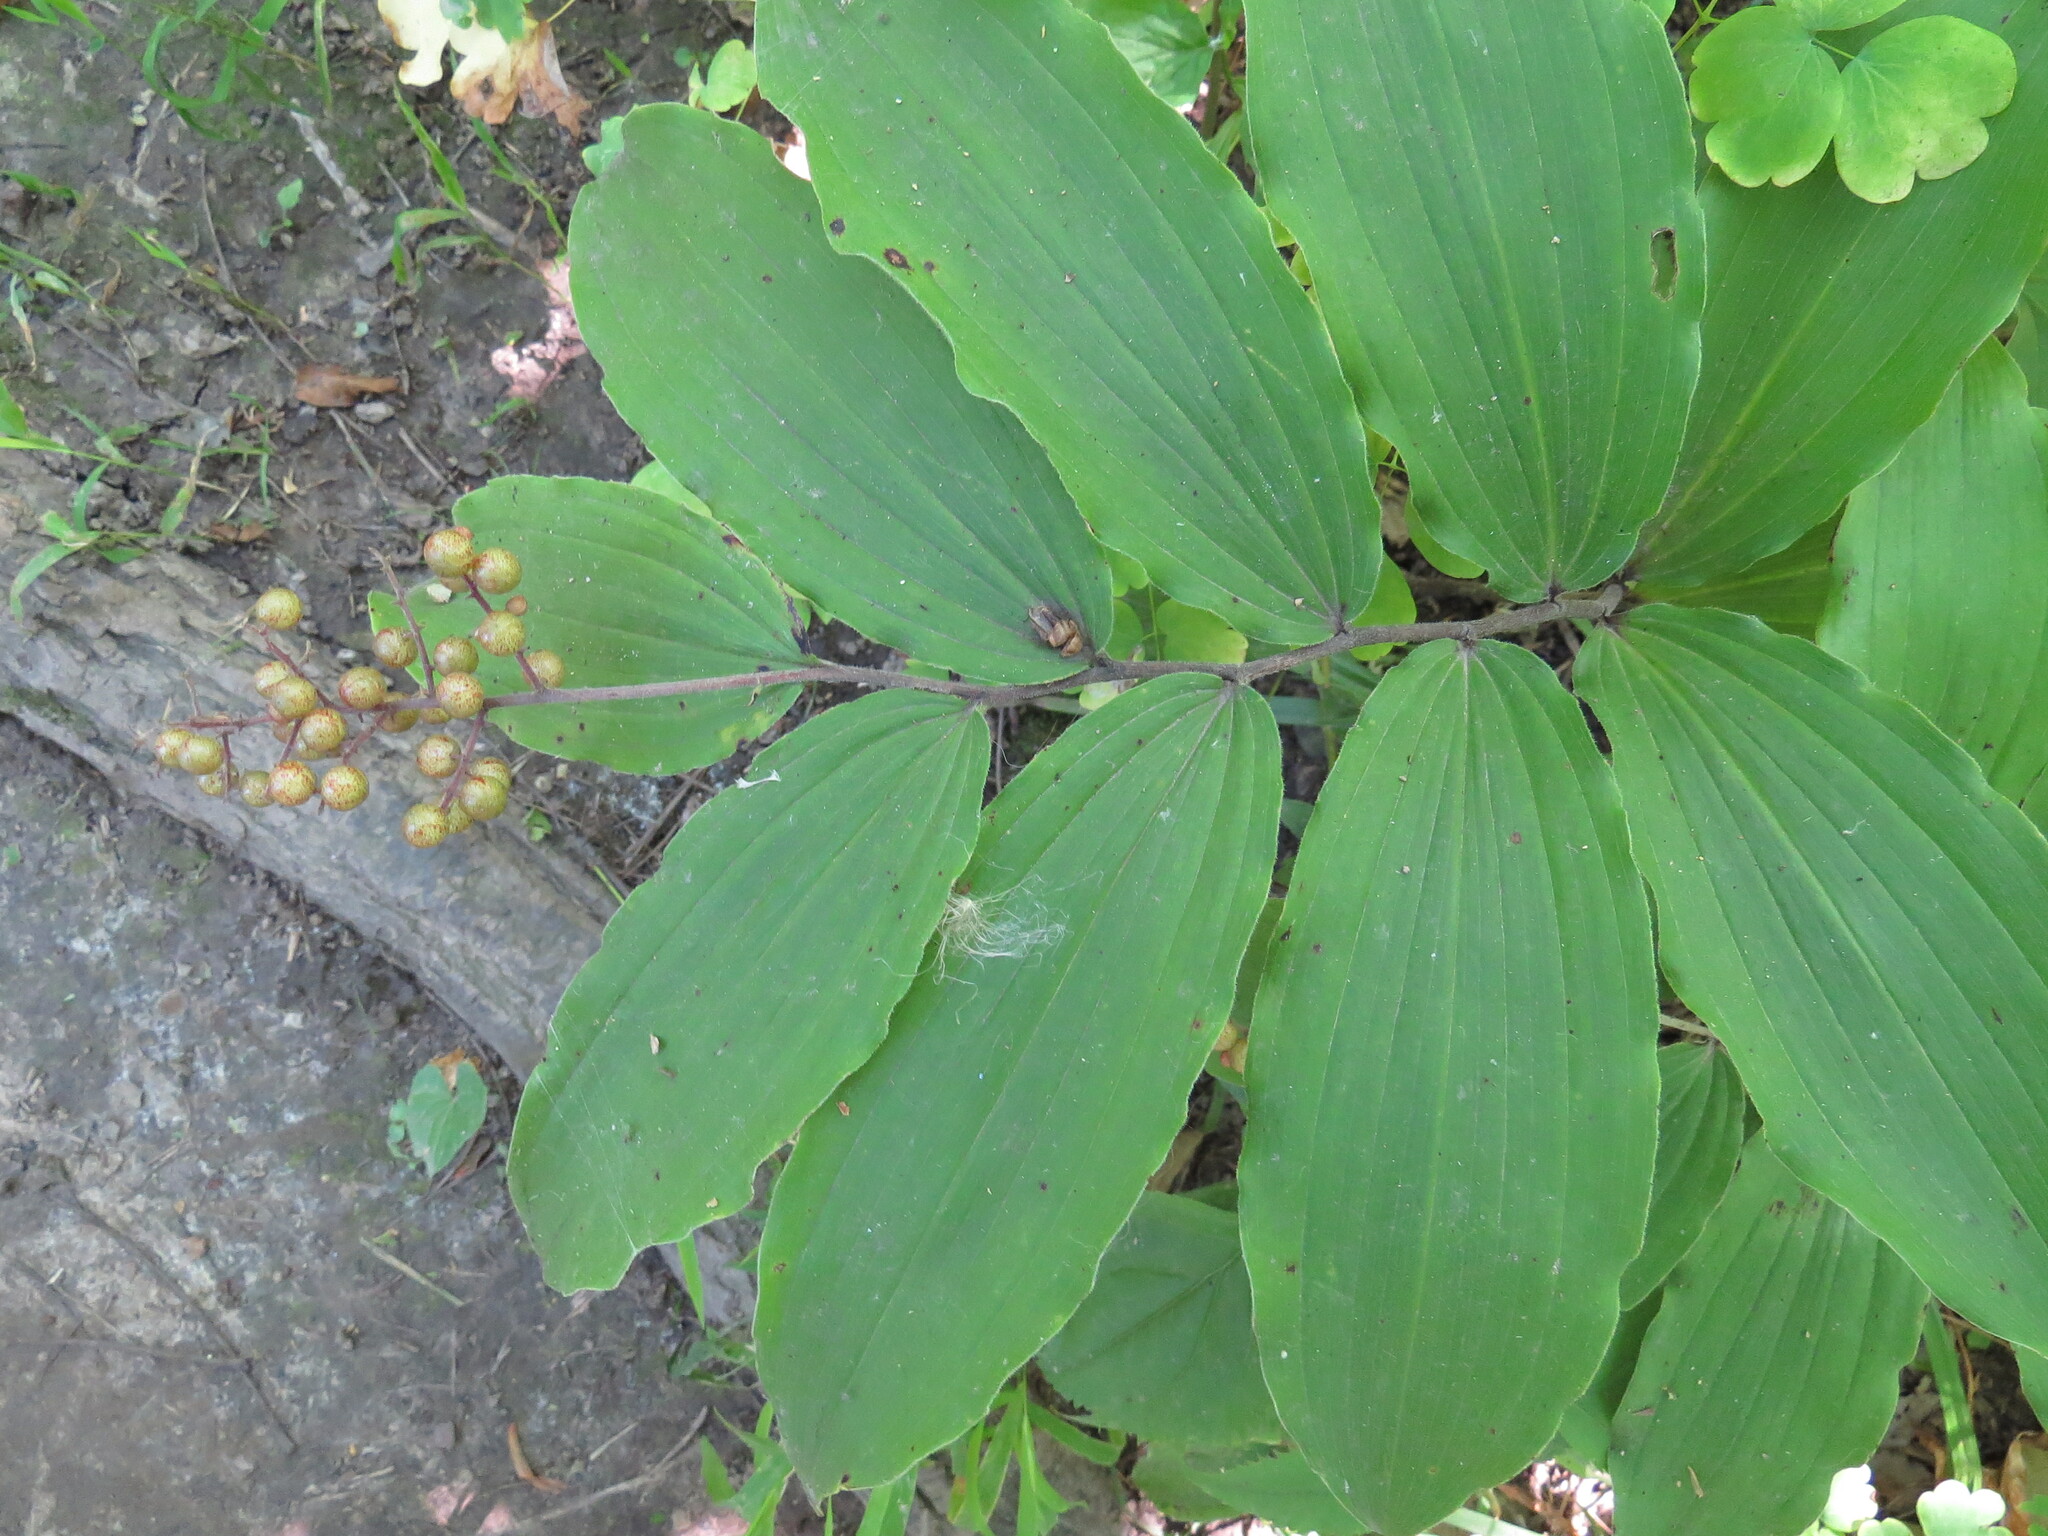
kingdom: Plantae
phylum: Tracheophyta
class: Liliopsida
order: Asparagales
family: Asparagaceae
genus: Maianthemum
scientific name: Maianthemum racemosum
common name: False spikenard
